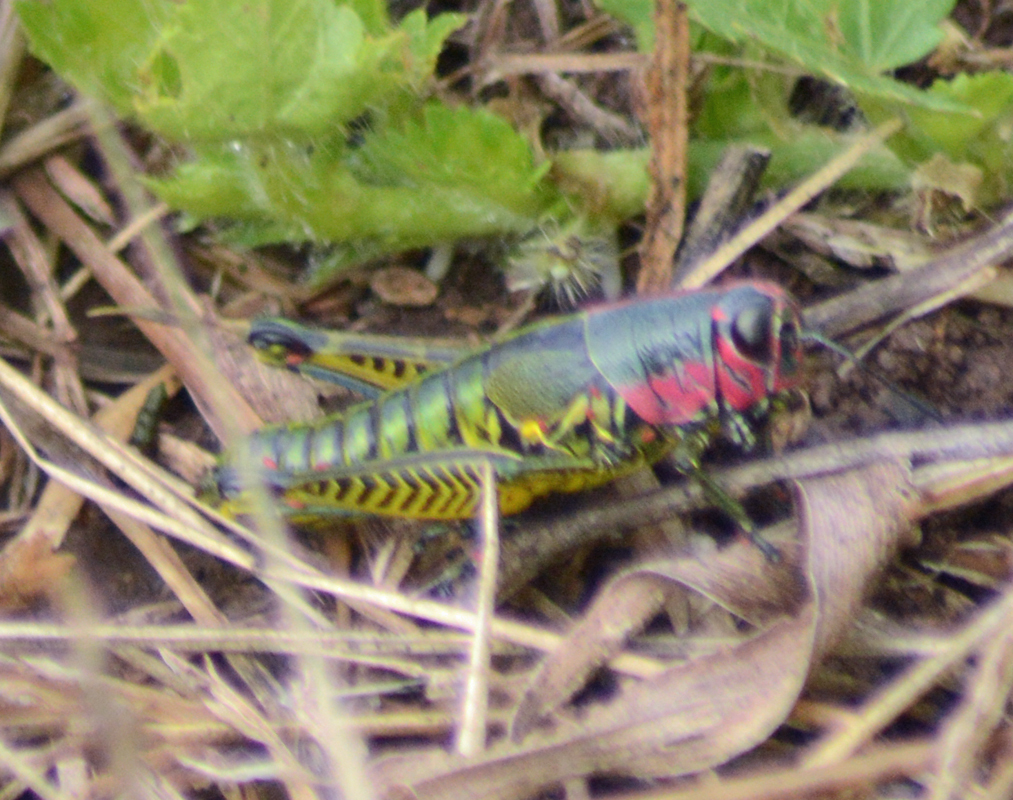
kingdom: Animalia
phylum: Arthropoda
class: Insecta
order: Orthoptera
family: Acrididae
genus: Aztecacris
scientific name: Aztecacris laevis
